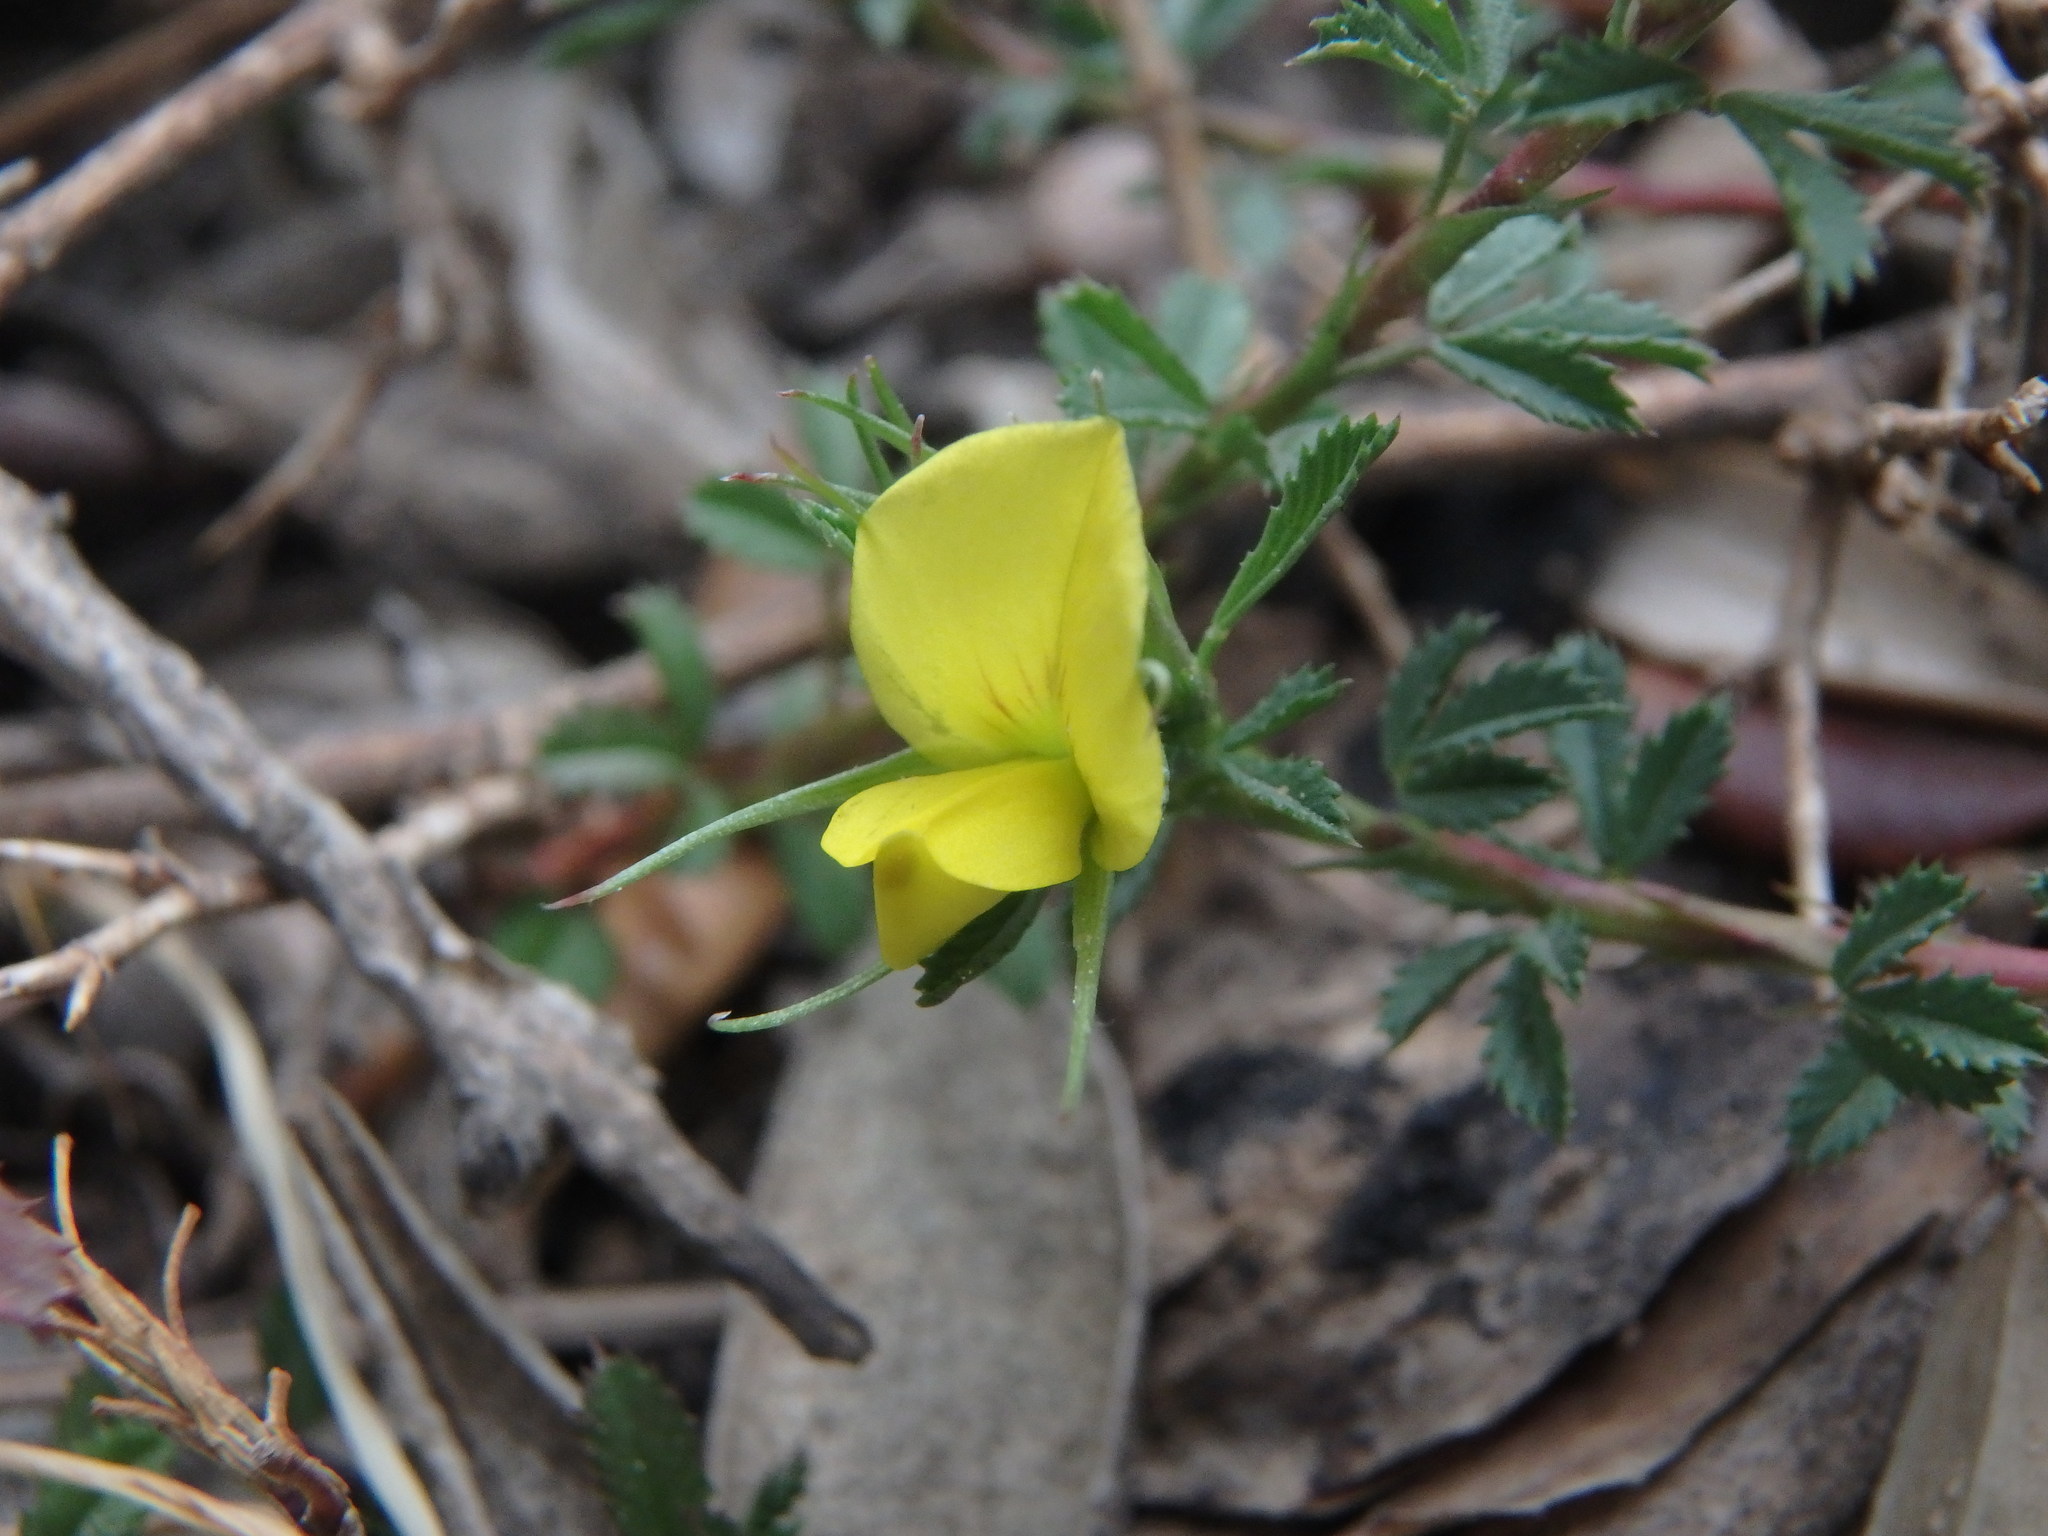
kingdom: Plantae
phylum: Tracheophyta
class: Magnoliopsida
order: Fabales
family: Fabaceae
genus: Ononis
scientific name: Ononis minutissima
